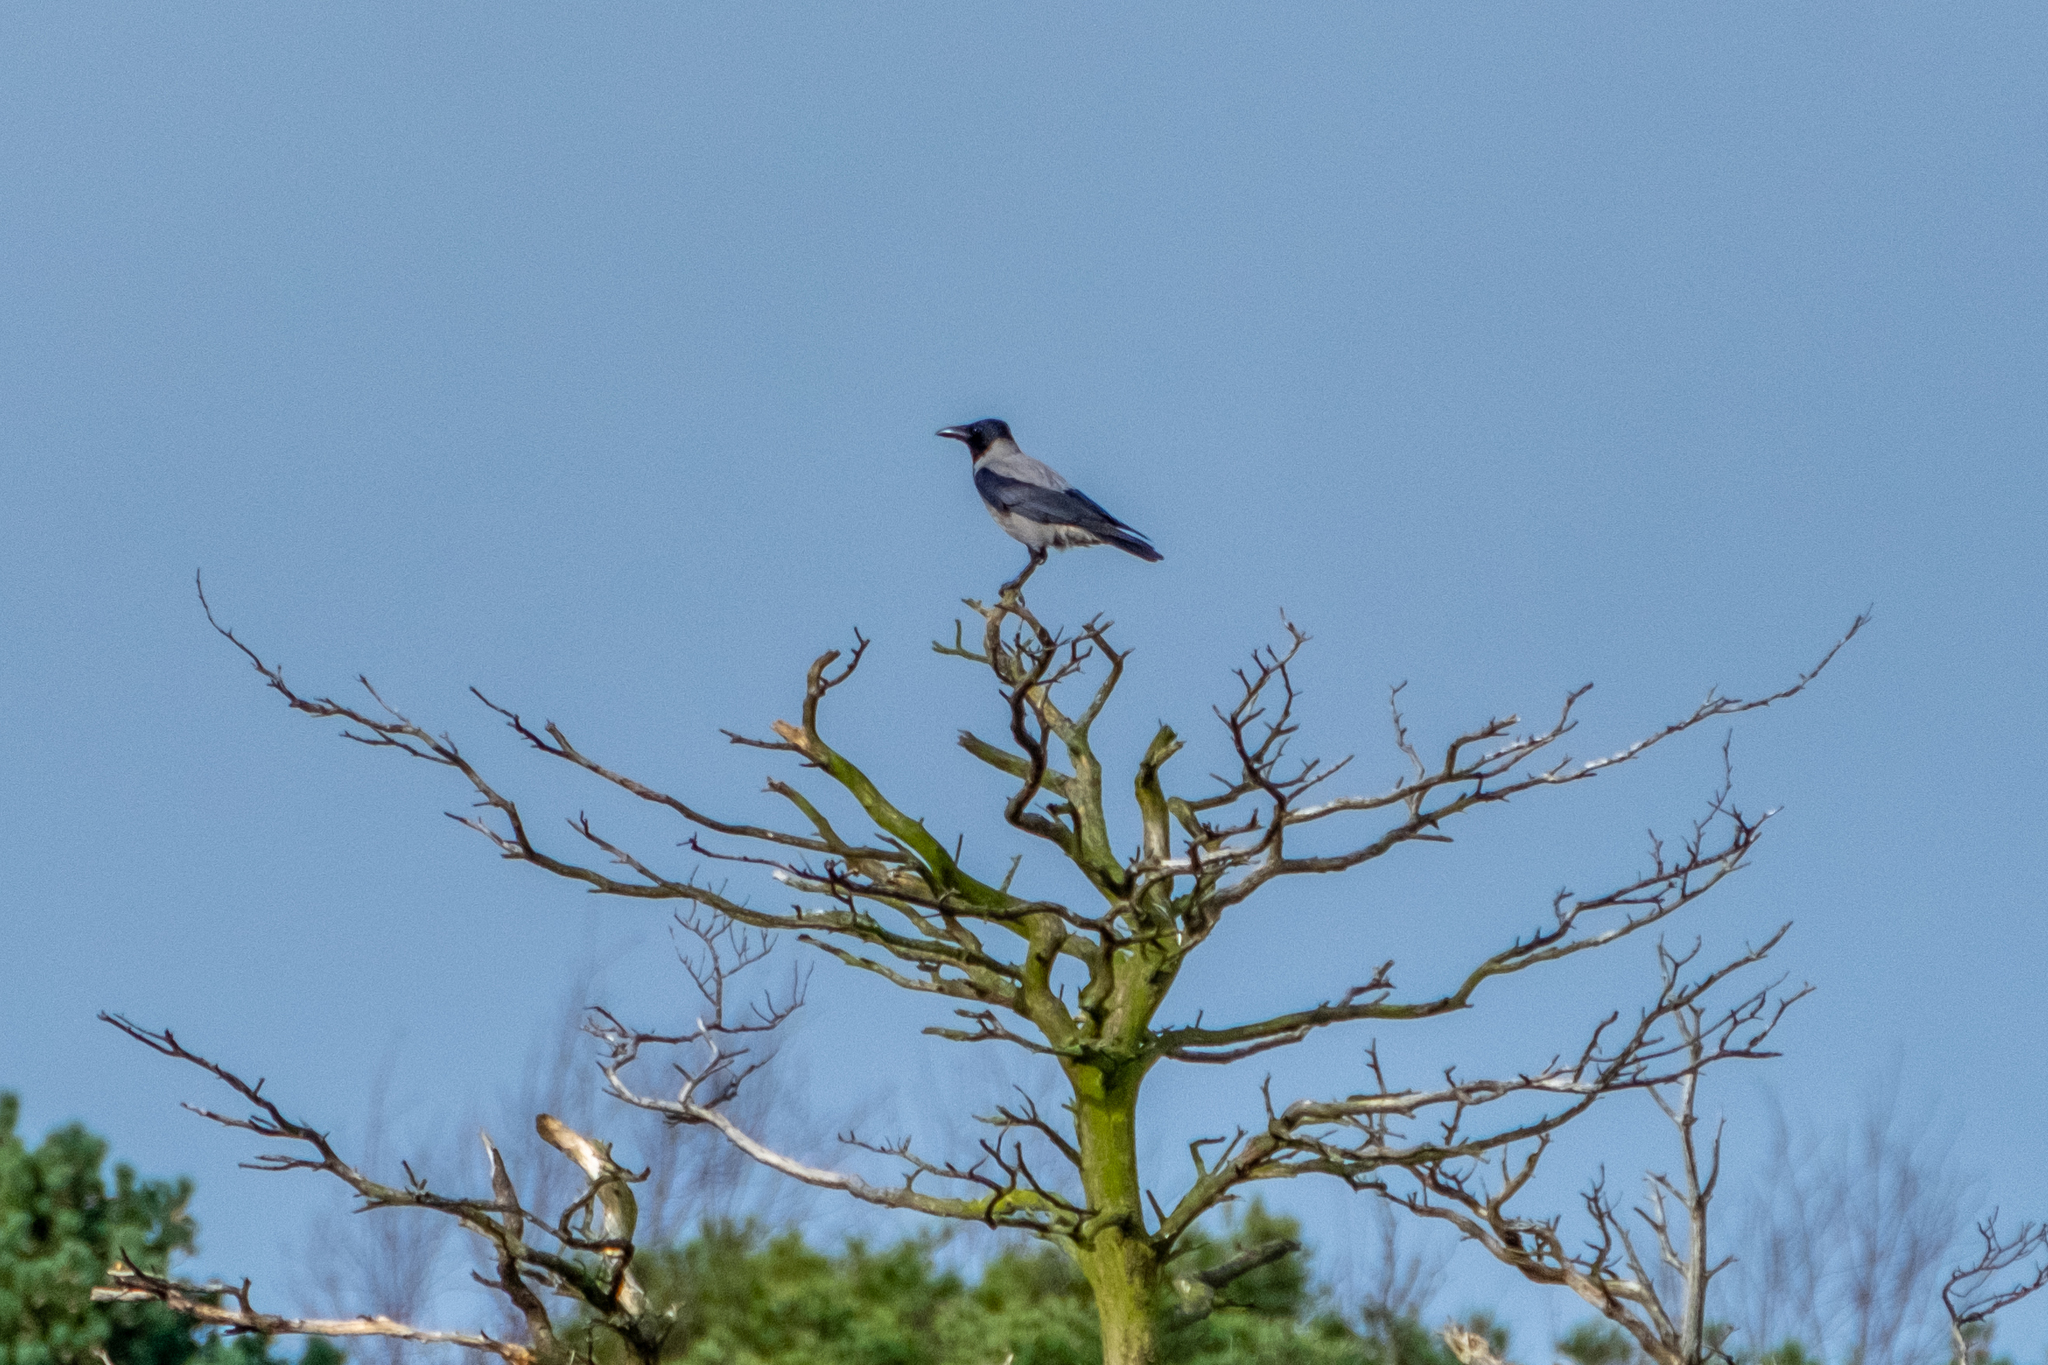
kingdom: Animalia
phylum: Chordata
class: Aves
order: Passeriformes
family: Corvidae
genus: Corvus
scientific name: Corvus cornix
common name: Hooded crow
